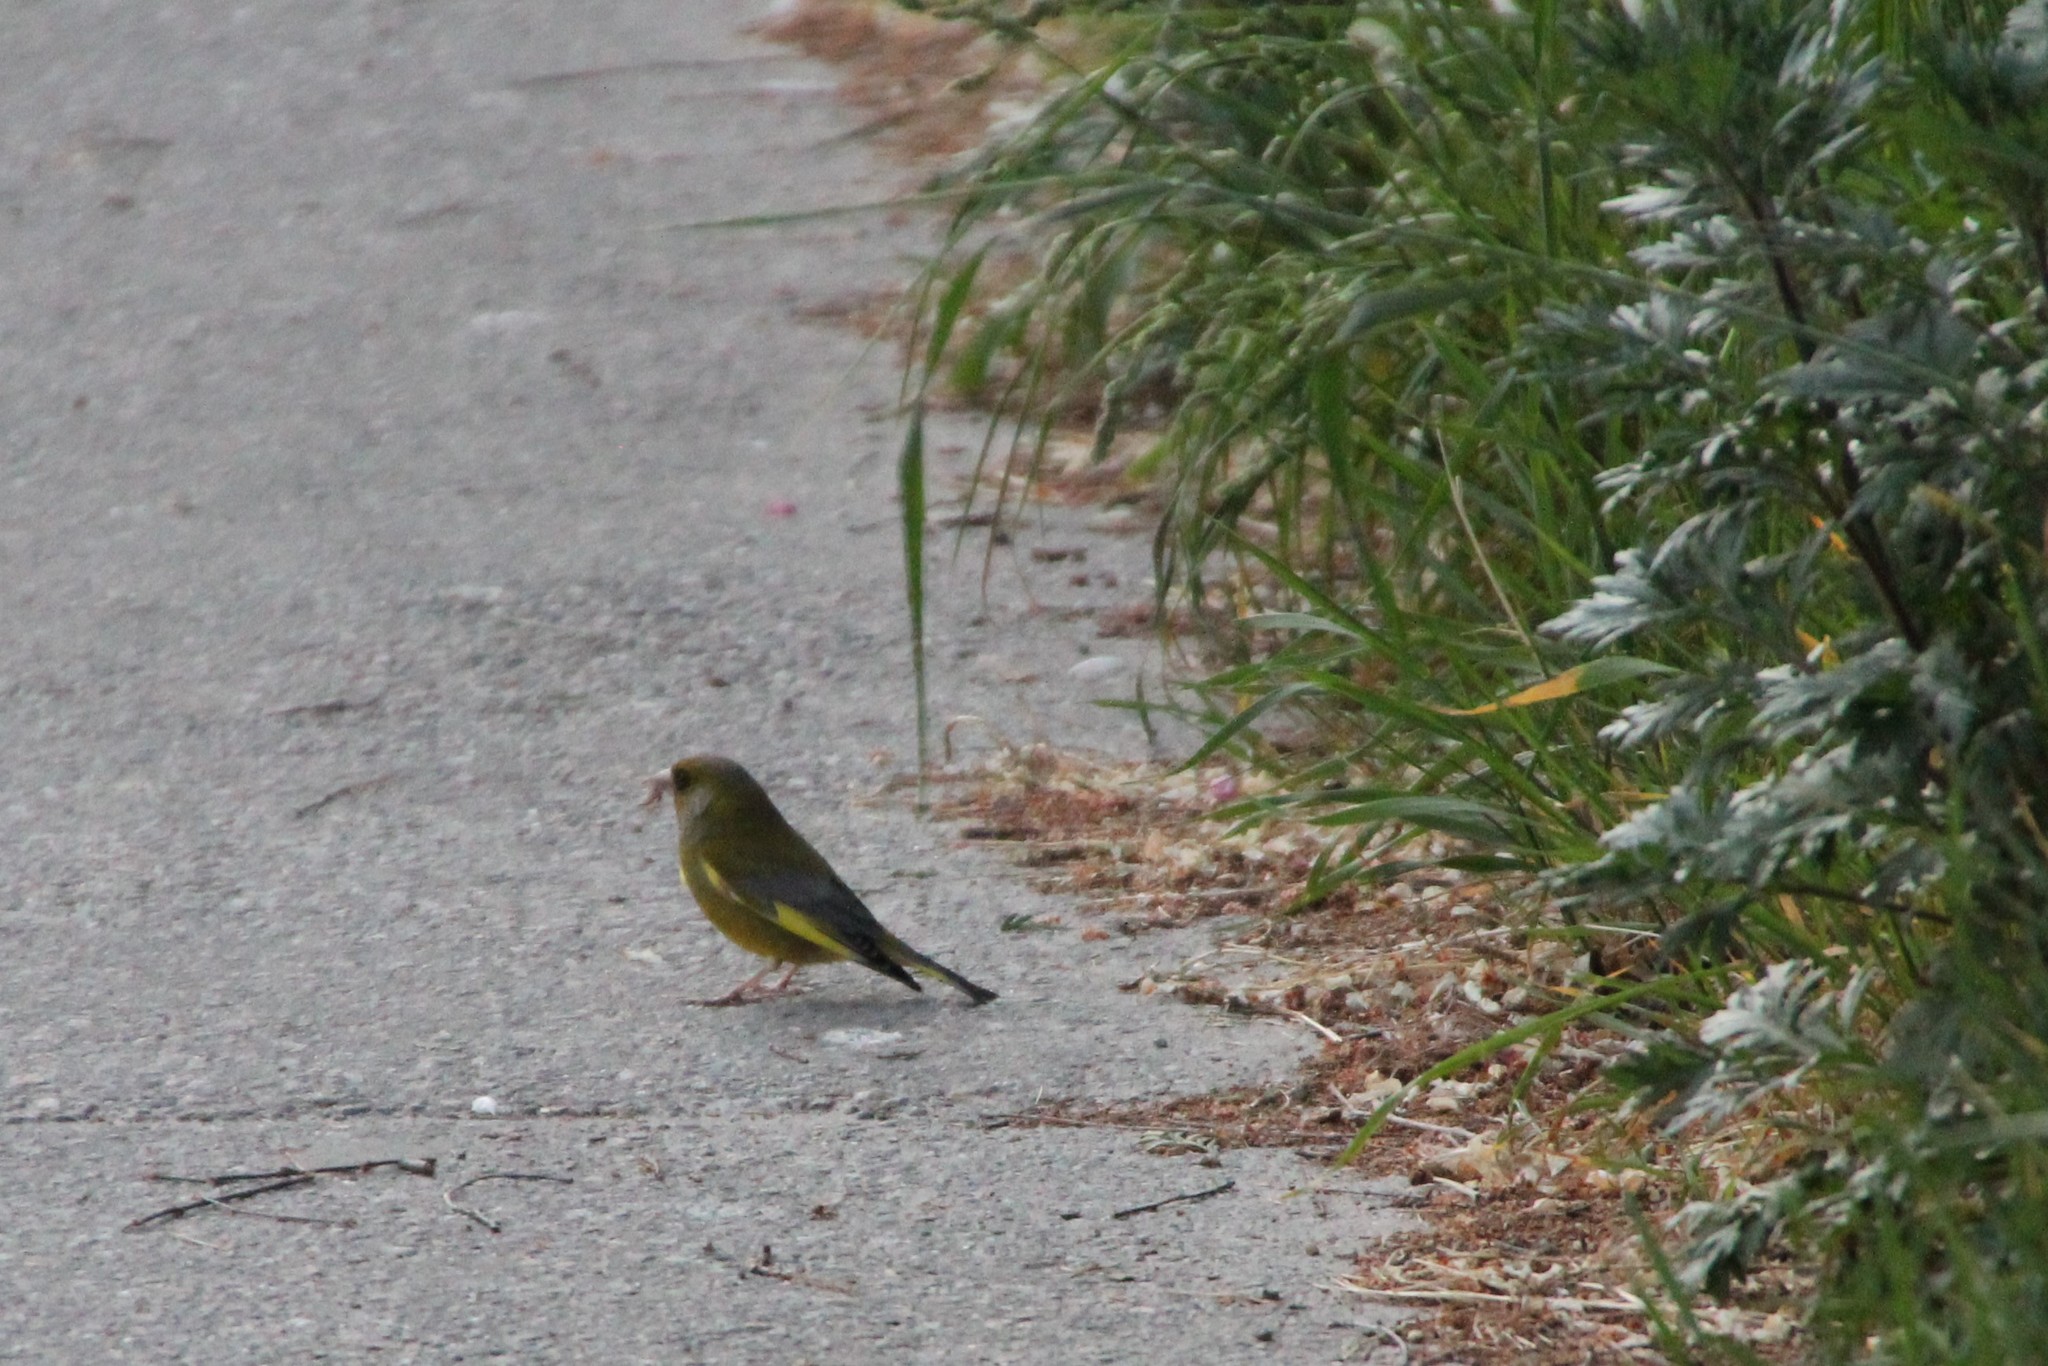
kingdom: Plantae
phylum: Tracheophyta
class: Liliopsida
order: Poales
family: Poaceae
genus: Chloris
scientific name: Chloris chloris
